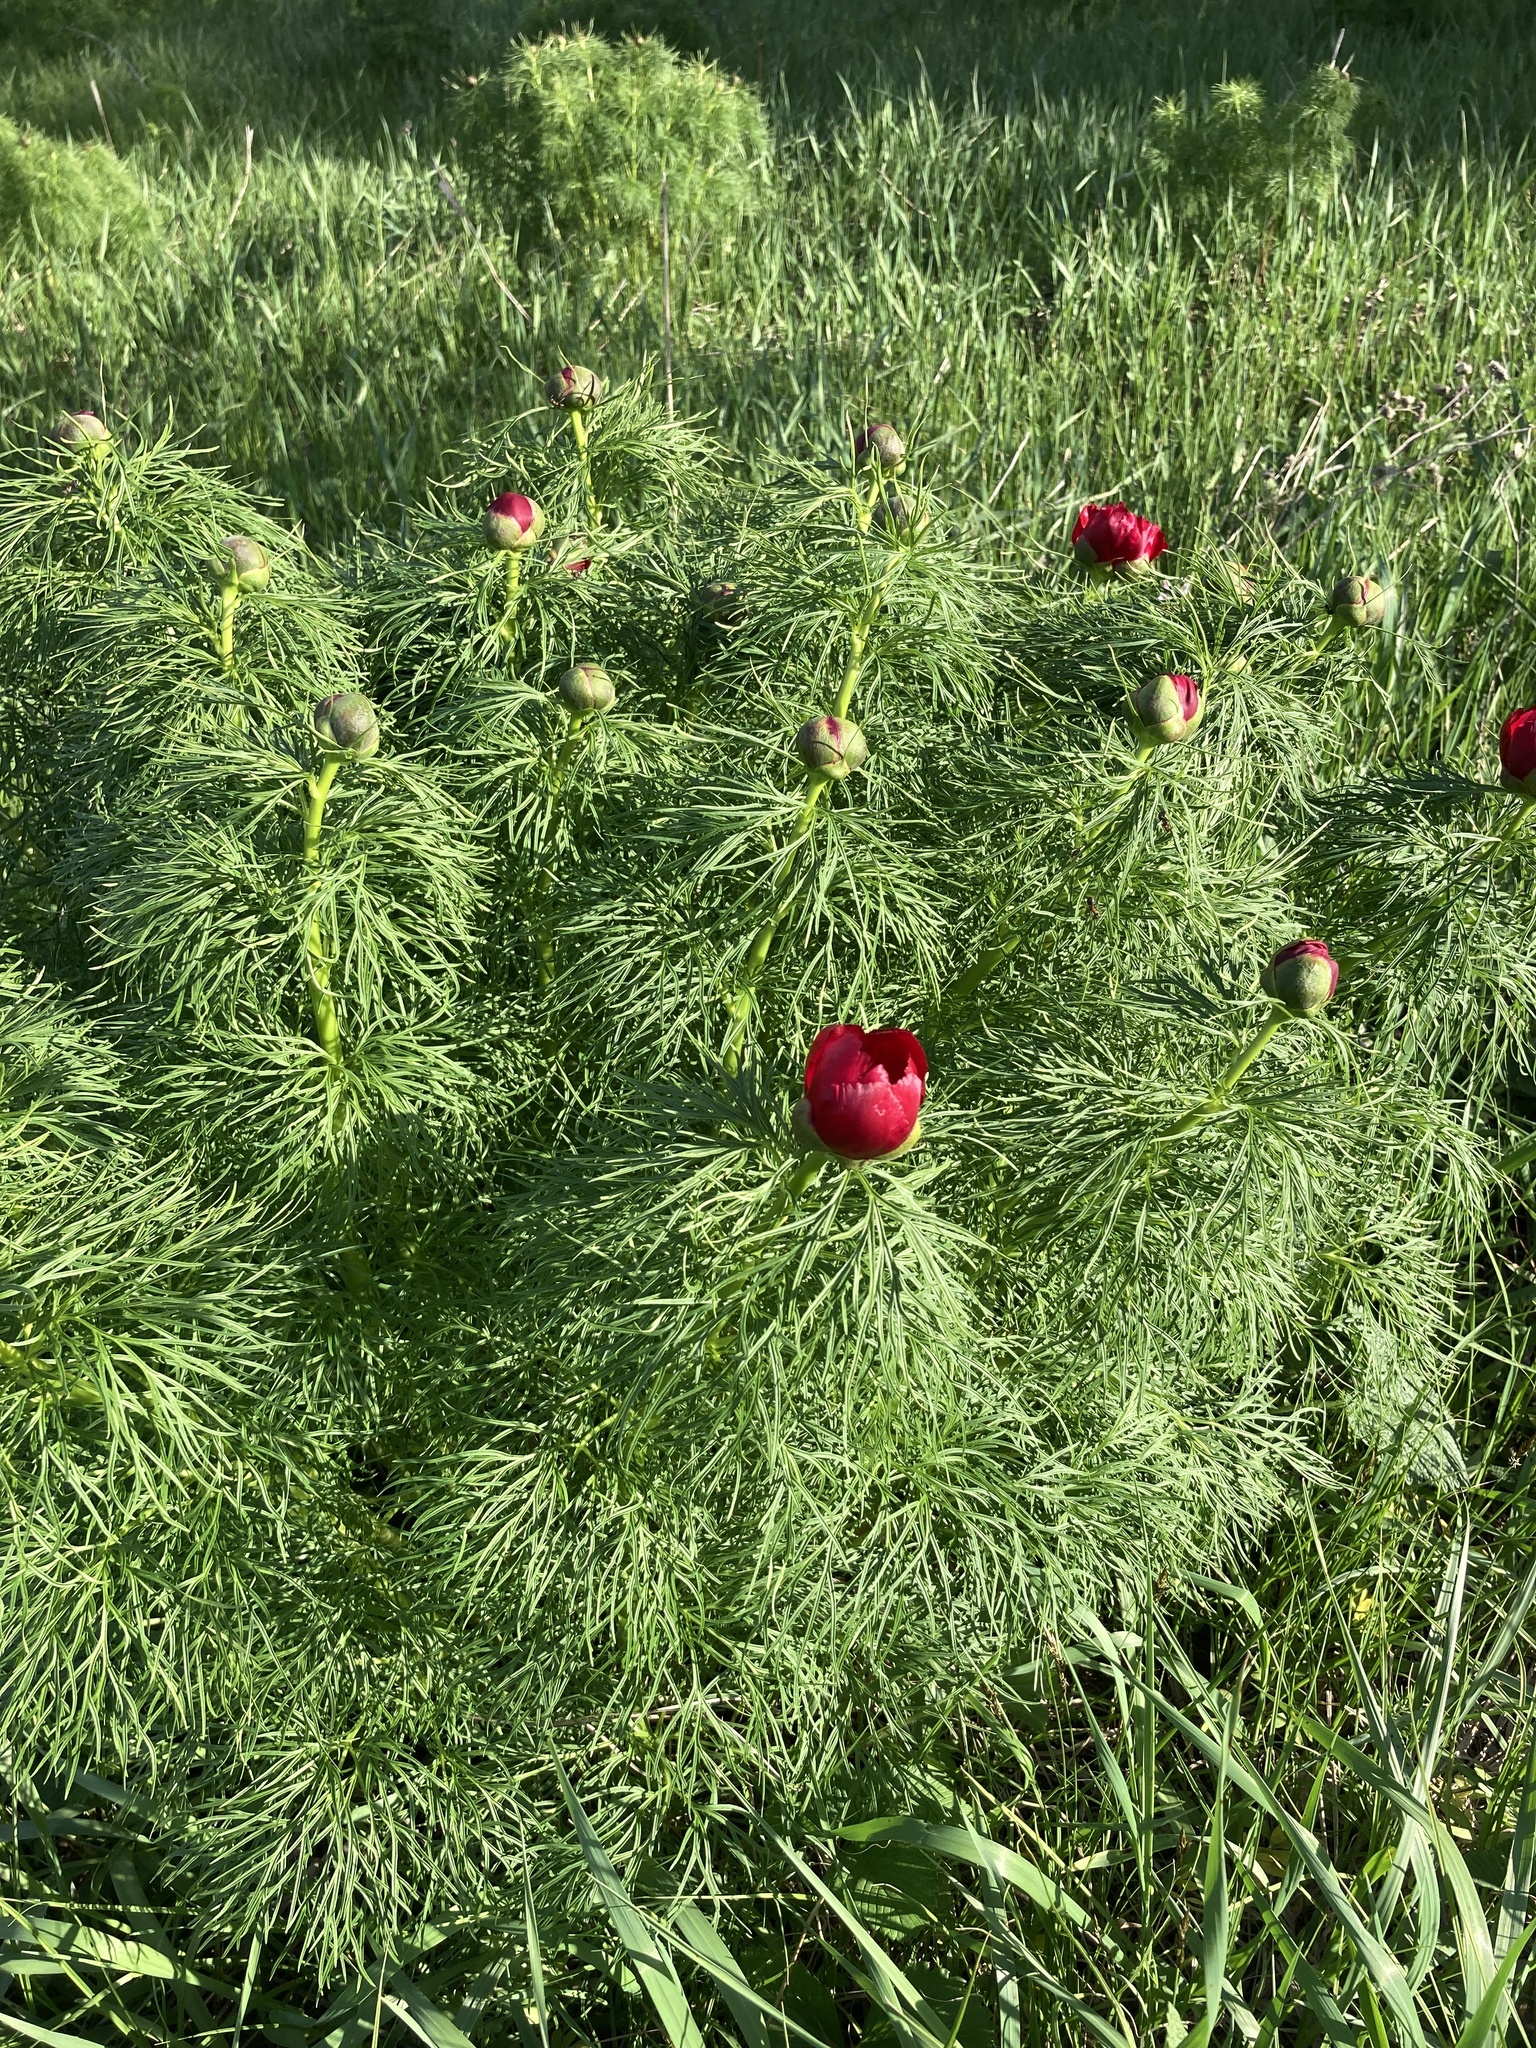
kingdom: Plantae
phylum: Tracheophyta
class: Magnoliopsida
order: Saxifragales
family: Paeoniaceae
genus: Paeonia
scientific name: Paeonia tenuifolia
